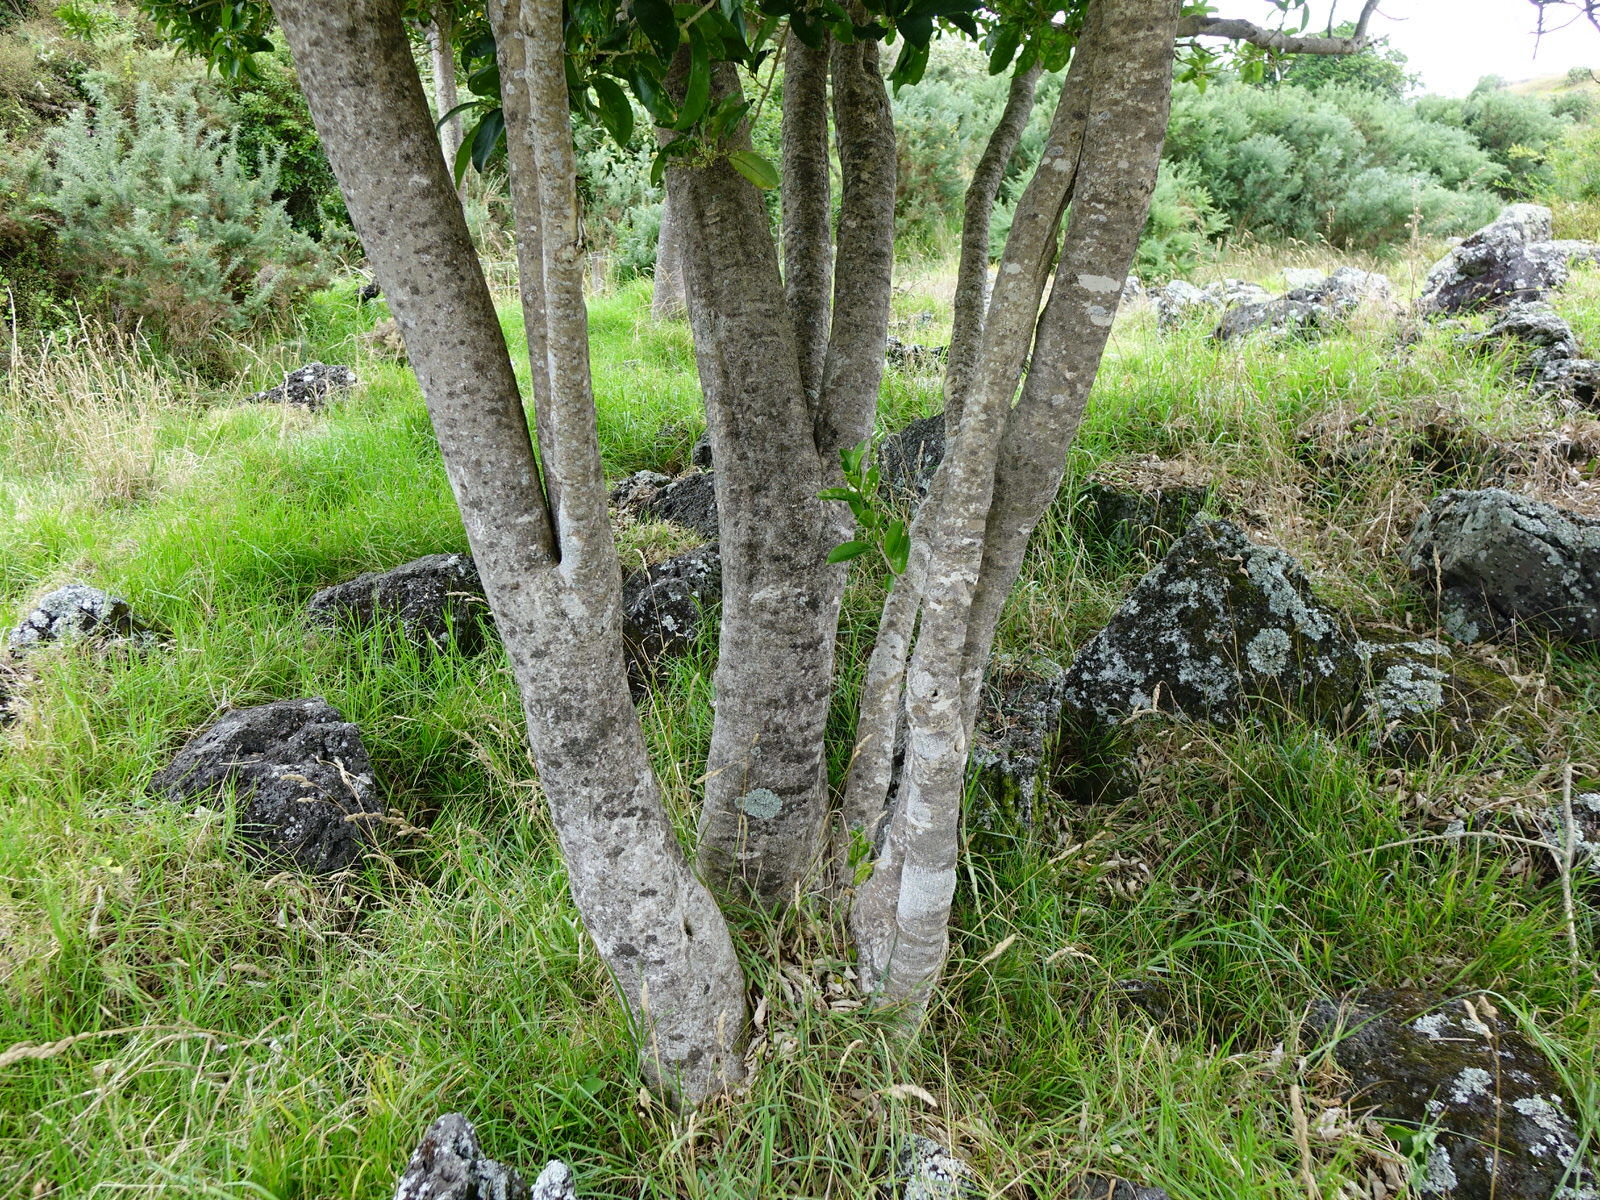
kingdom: Plantae
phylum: Tracheophyta
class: Magnoliopsida
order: Malpighiales
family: Violaceae
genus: Melicytus
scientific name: Melicytus ramiflorus
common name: Mahoe
